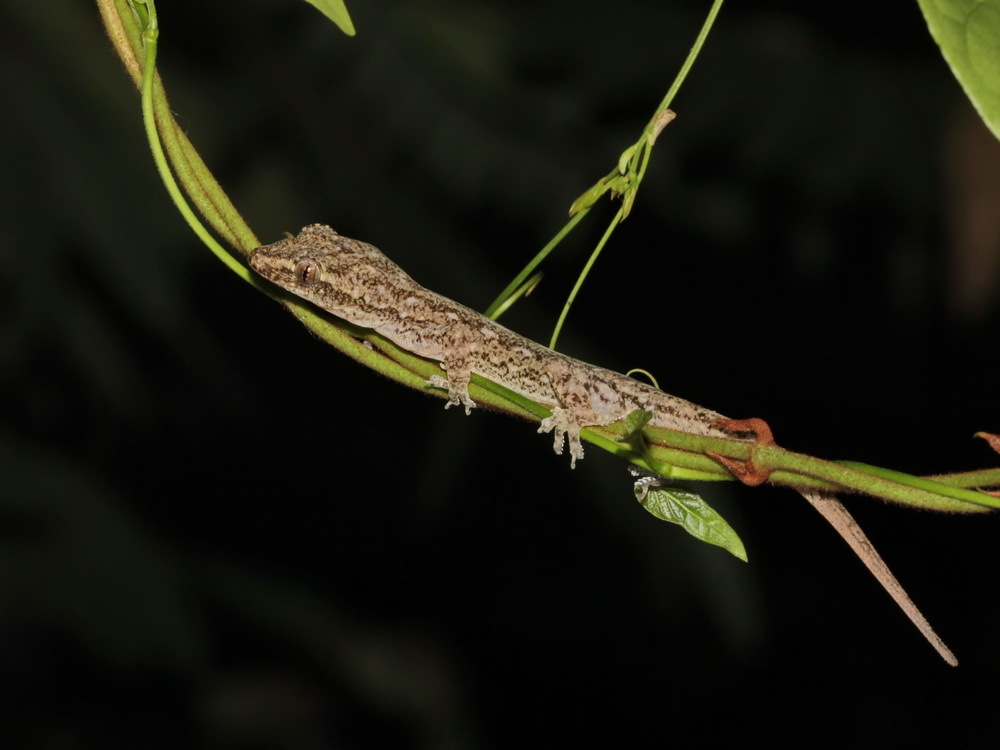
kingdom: Animalia
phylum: Chordata
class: Squamata
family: Gekkonidae
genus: Hemidactylus
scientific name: Hemidactylus frenatus
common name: Common house gecko
